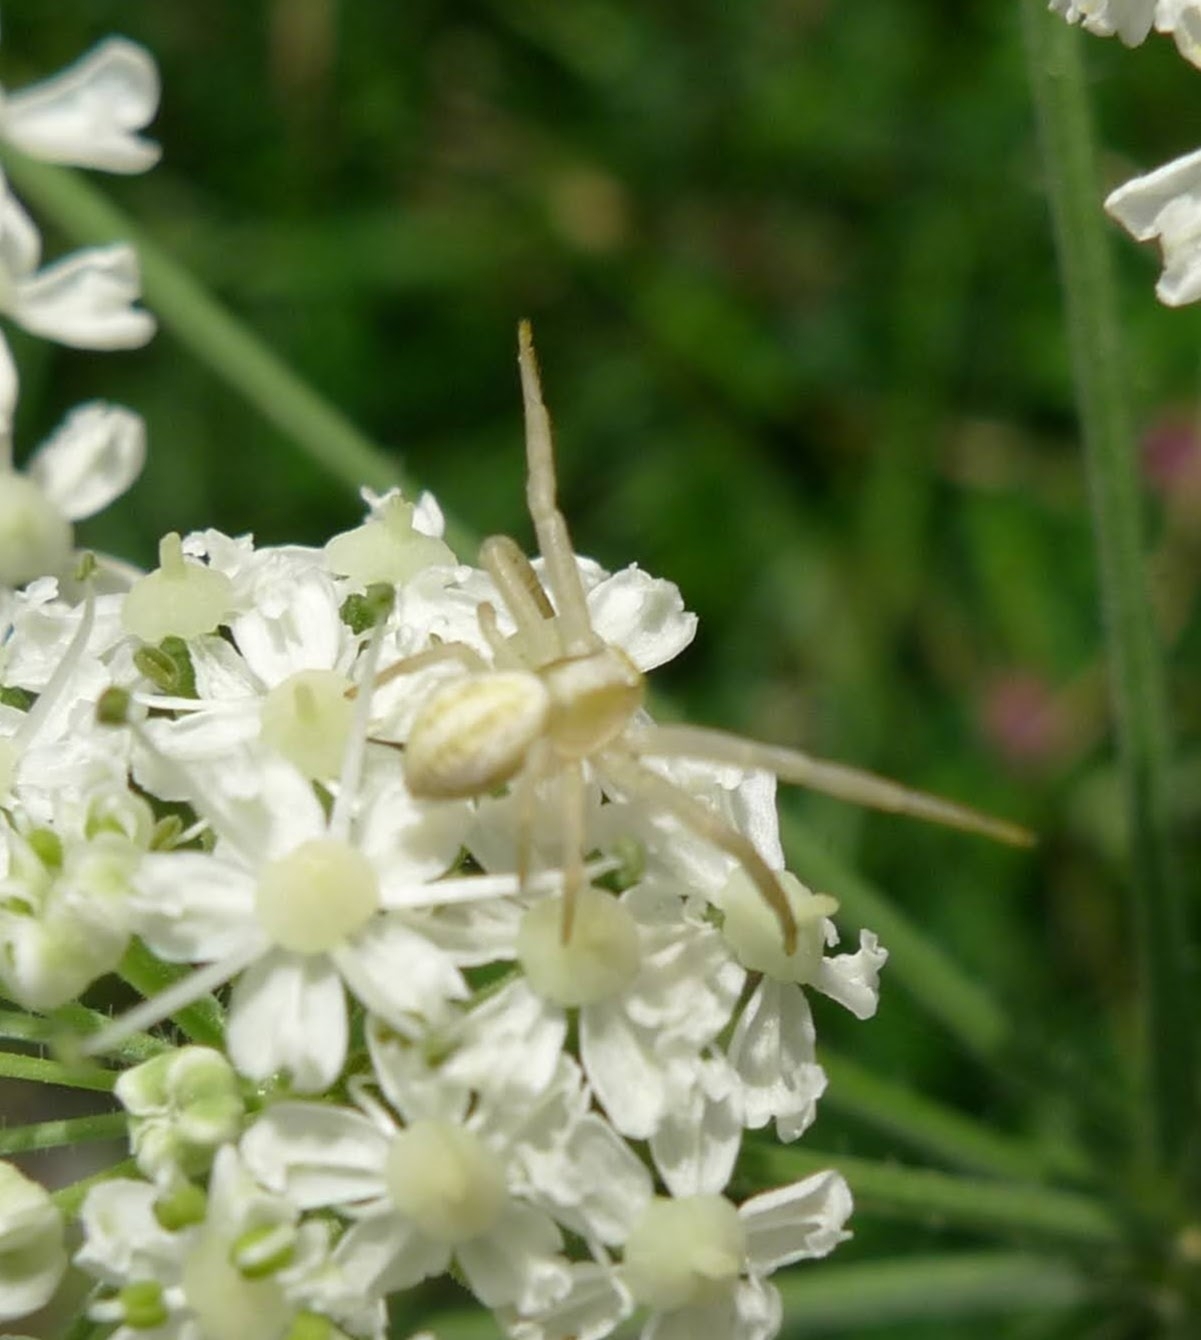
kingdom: Animalia
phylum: Arthropoda
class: Arachnida
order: Araneae
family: Thomisidae
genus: Misumena
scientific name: Misumena vatia
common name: Goldenrod crab spider
